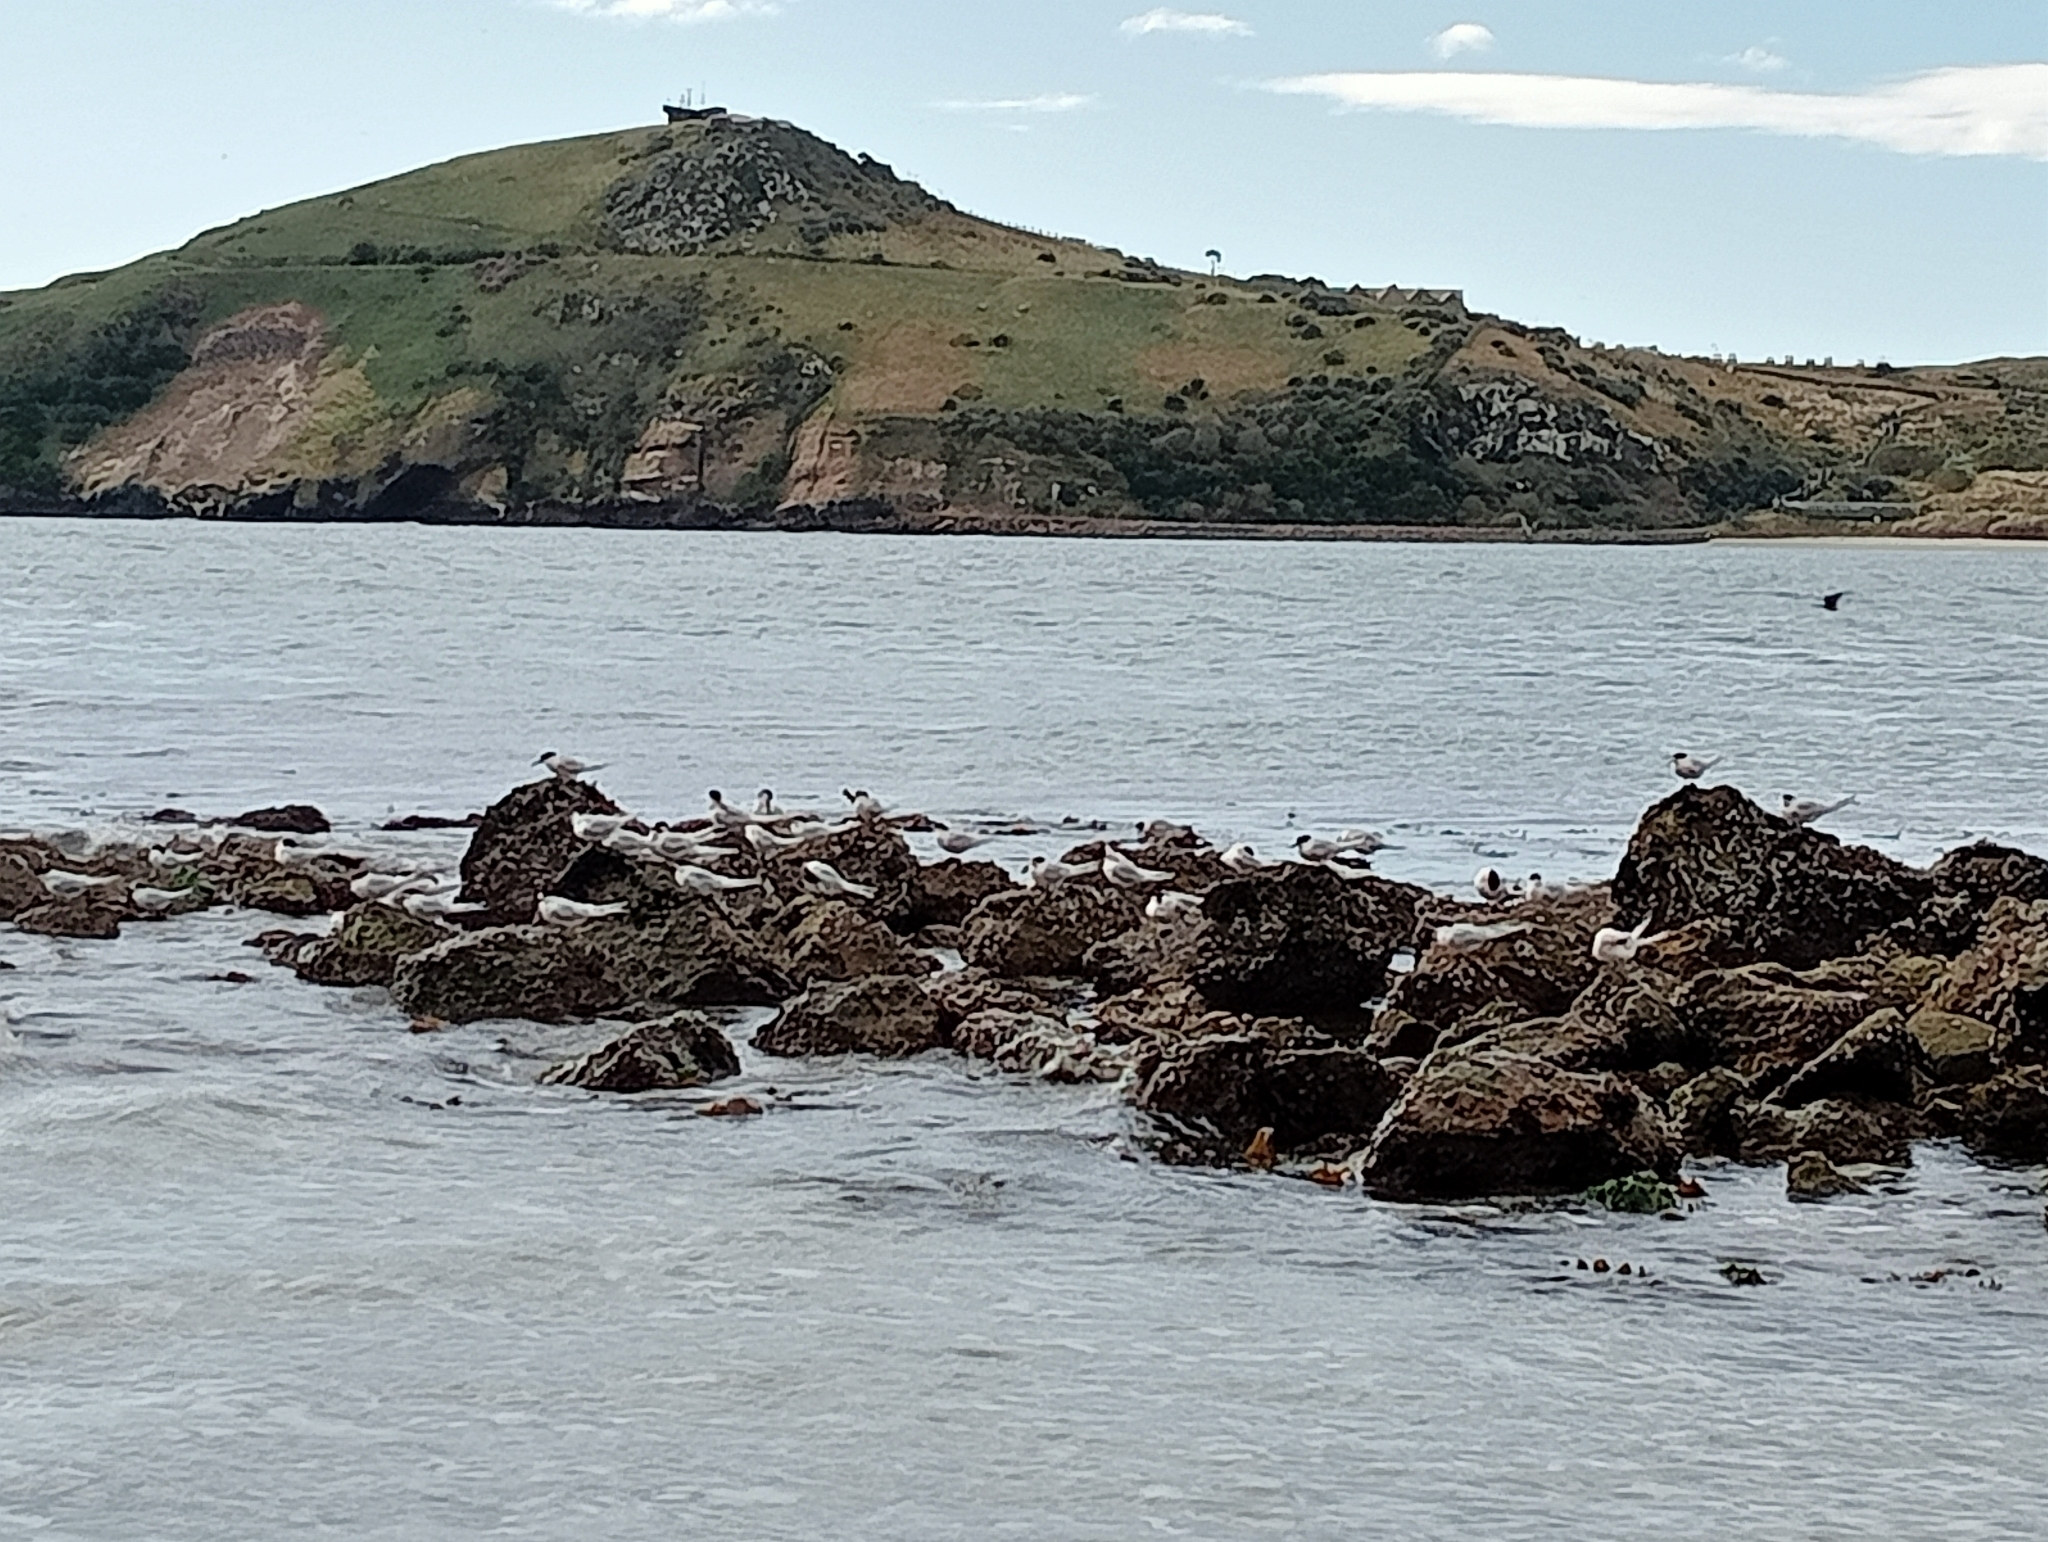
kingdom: Animalia
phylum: Chordata
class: Aves
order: Charadriiformes
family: Laridae
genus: Sterna
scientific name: Sterna striata
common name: White-fronted tern
